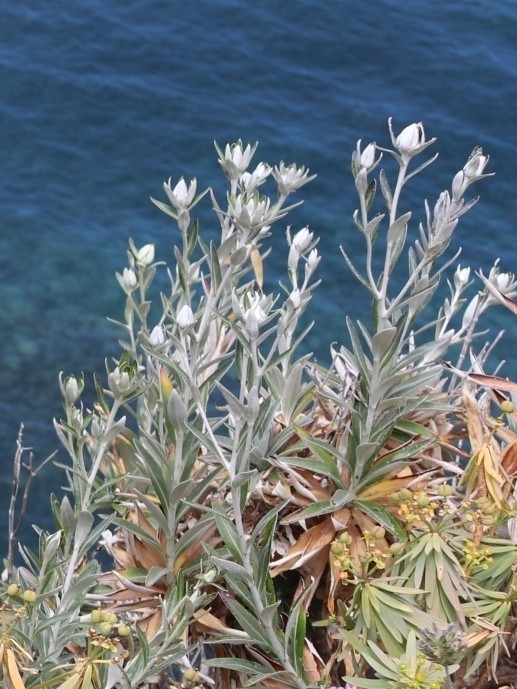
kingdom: Plantae
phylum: Tracheophyta
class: Magnoliopsida
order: Asterales
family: Asteraceae
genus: Carlina
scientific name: Carlina salicifolia
